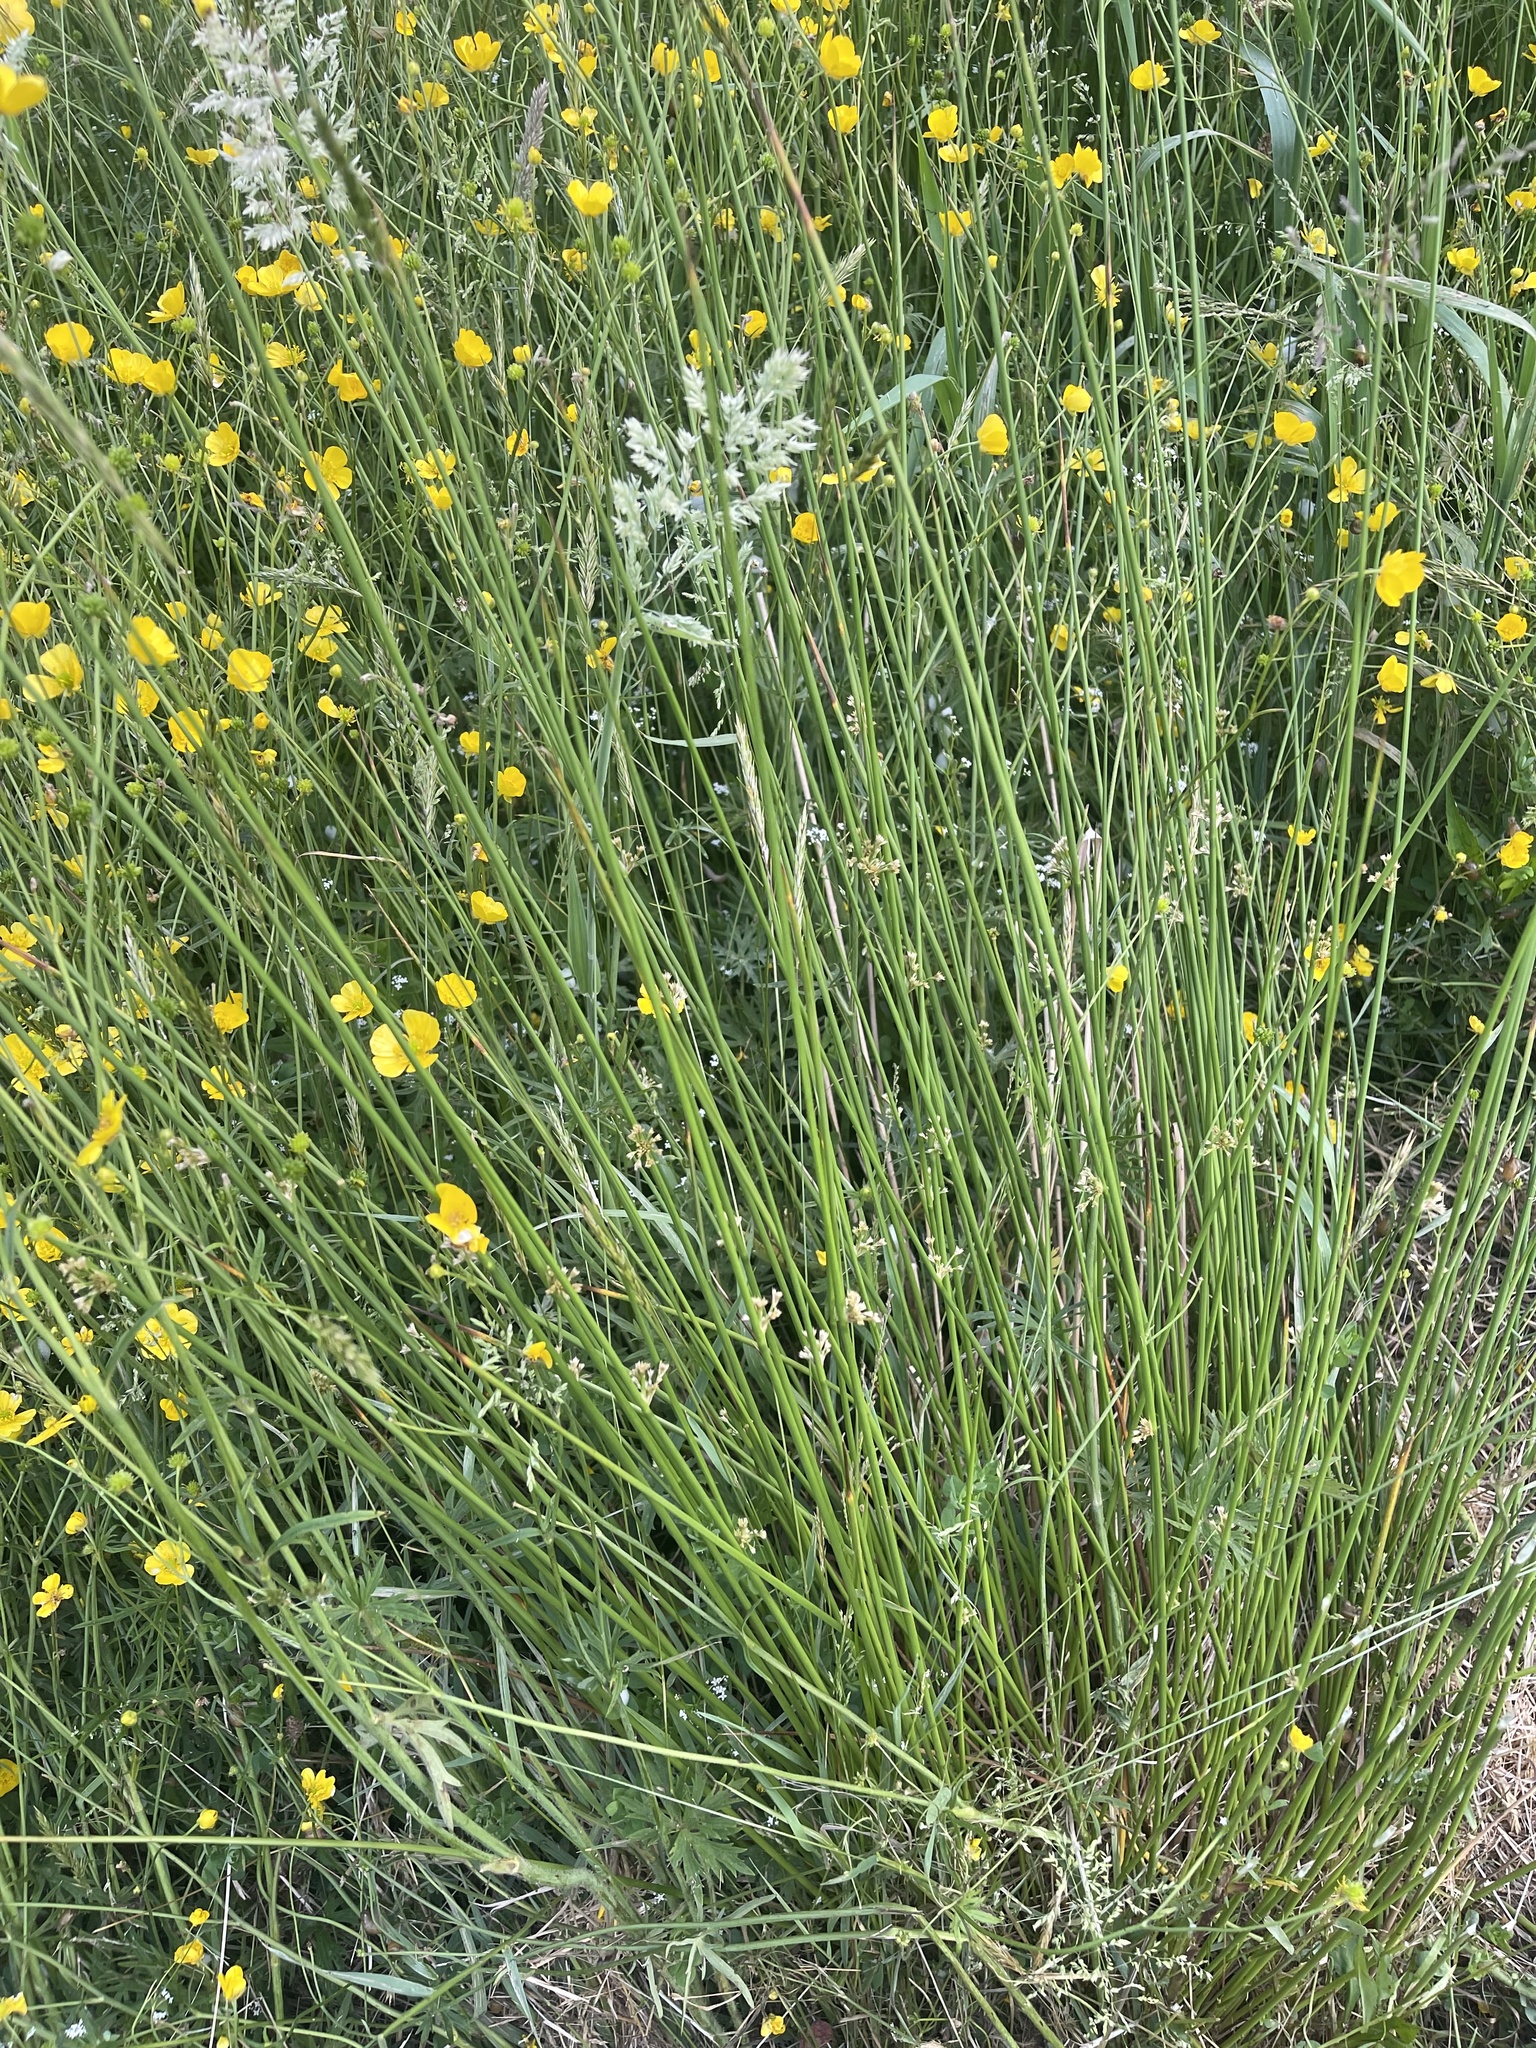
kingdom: Plantae
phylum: Tracheophyta
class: Liliopsida
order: Poales
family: Juncaceae
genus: Juncus
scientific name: Juncus effusus
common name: Soft rush
